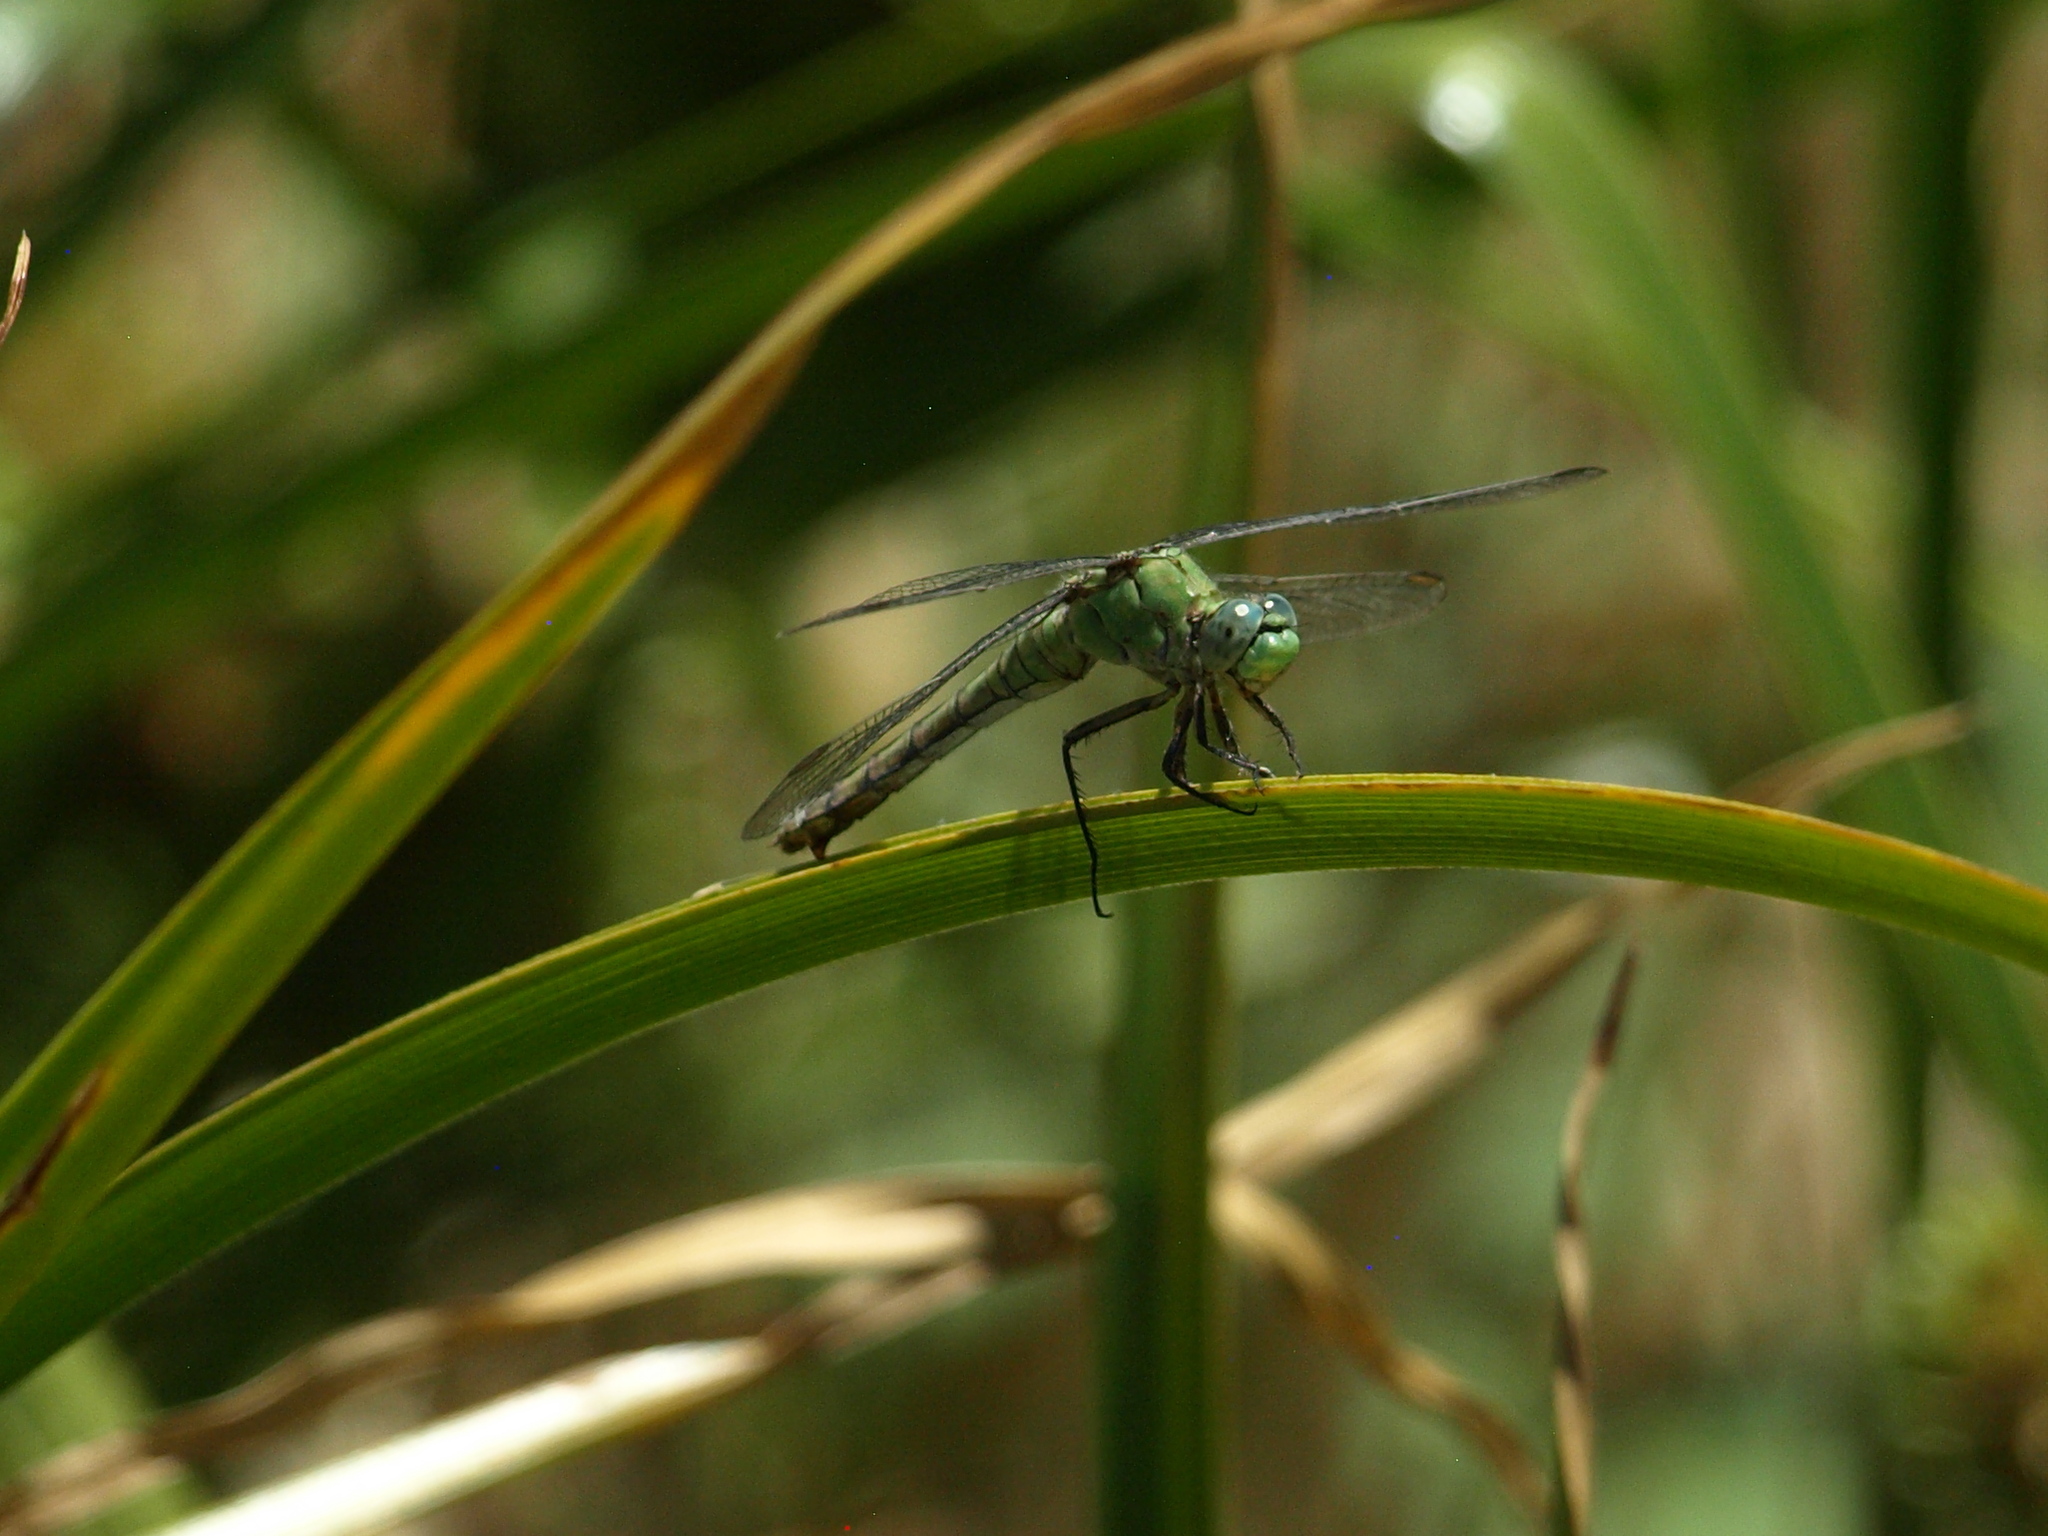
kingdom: Animalia
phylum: Arthropoda
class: Insecta
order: Odonata
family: Libellulidae
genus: Erythemis
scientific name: Erythemis collocata
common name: Western pondhawk
